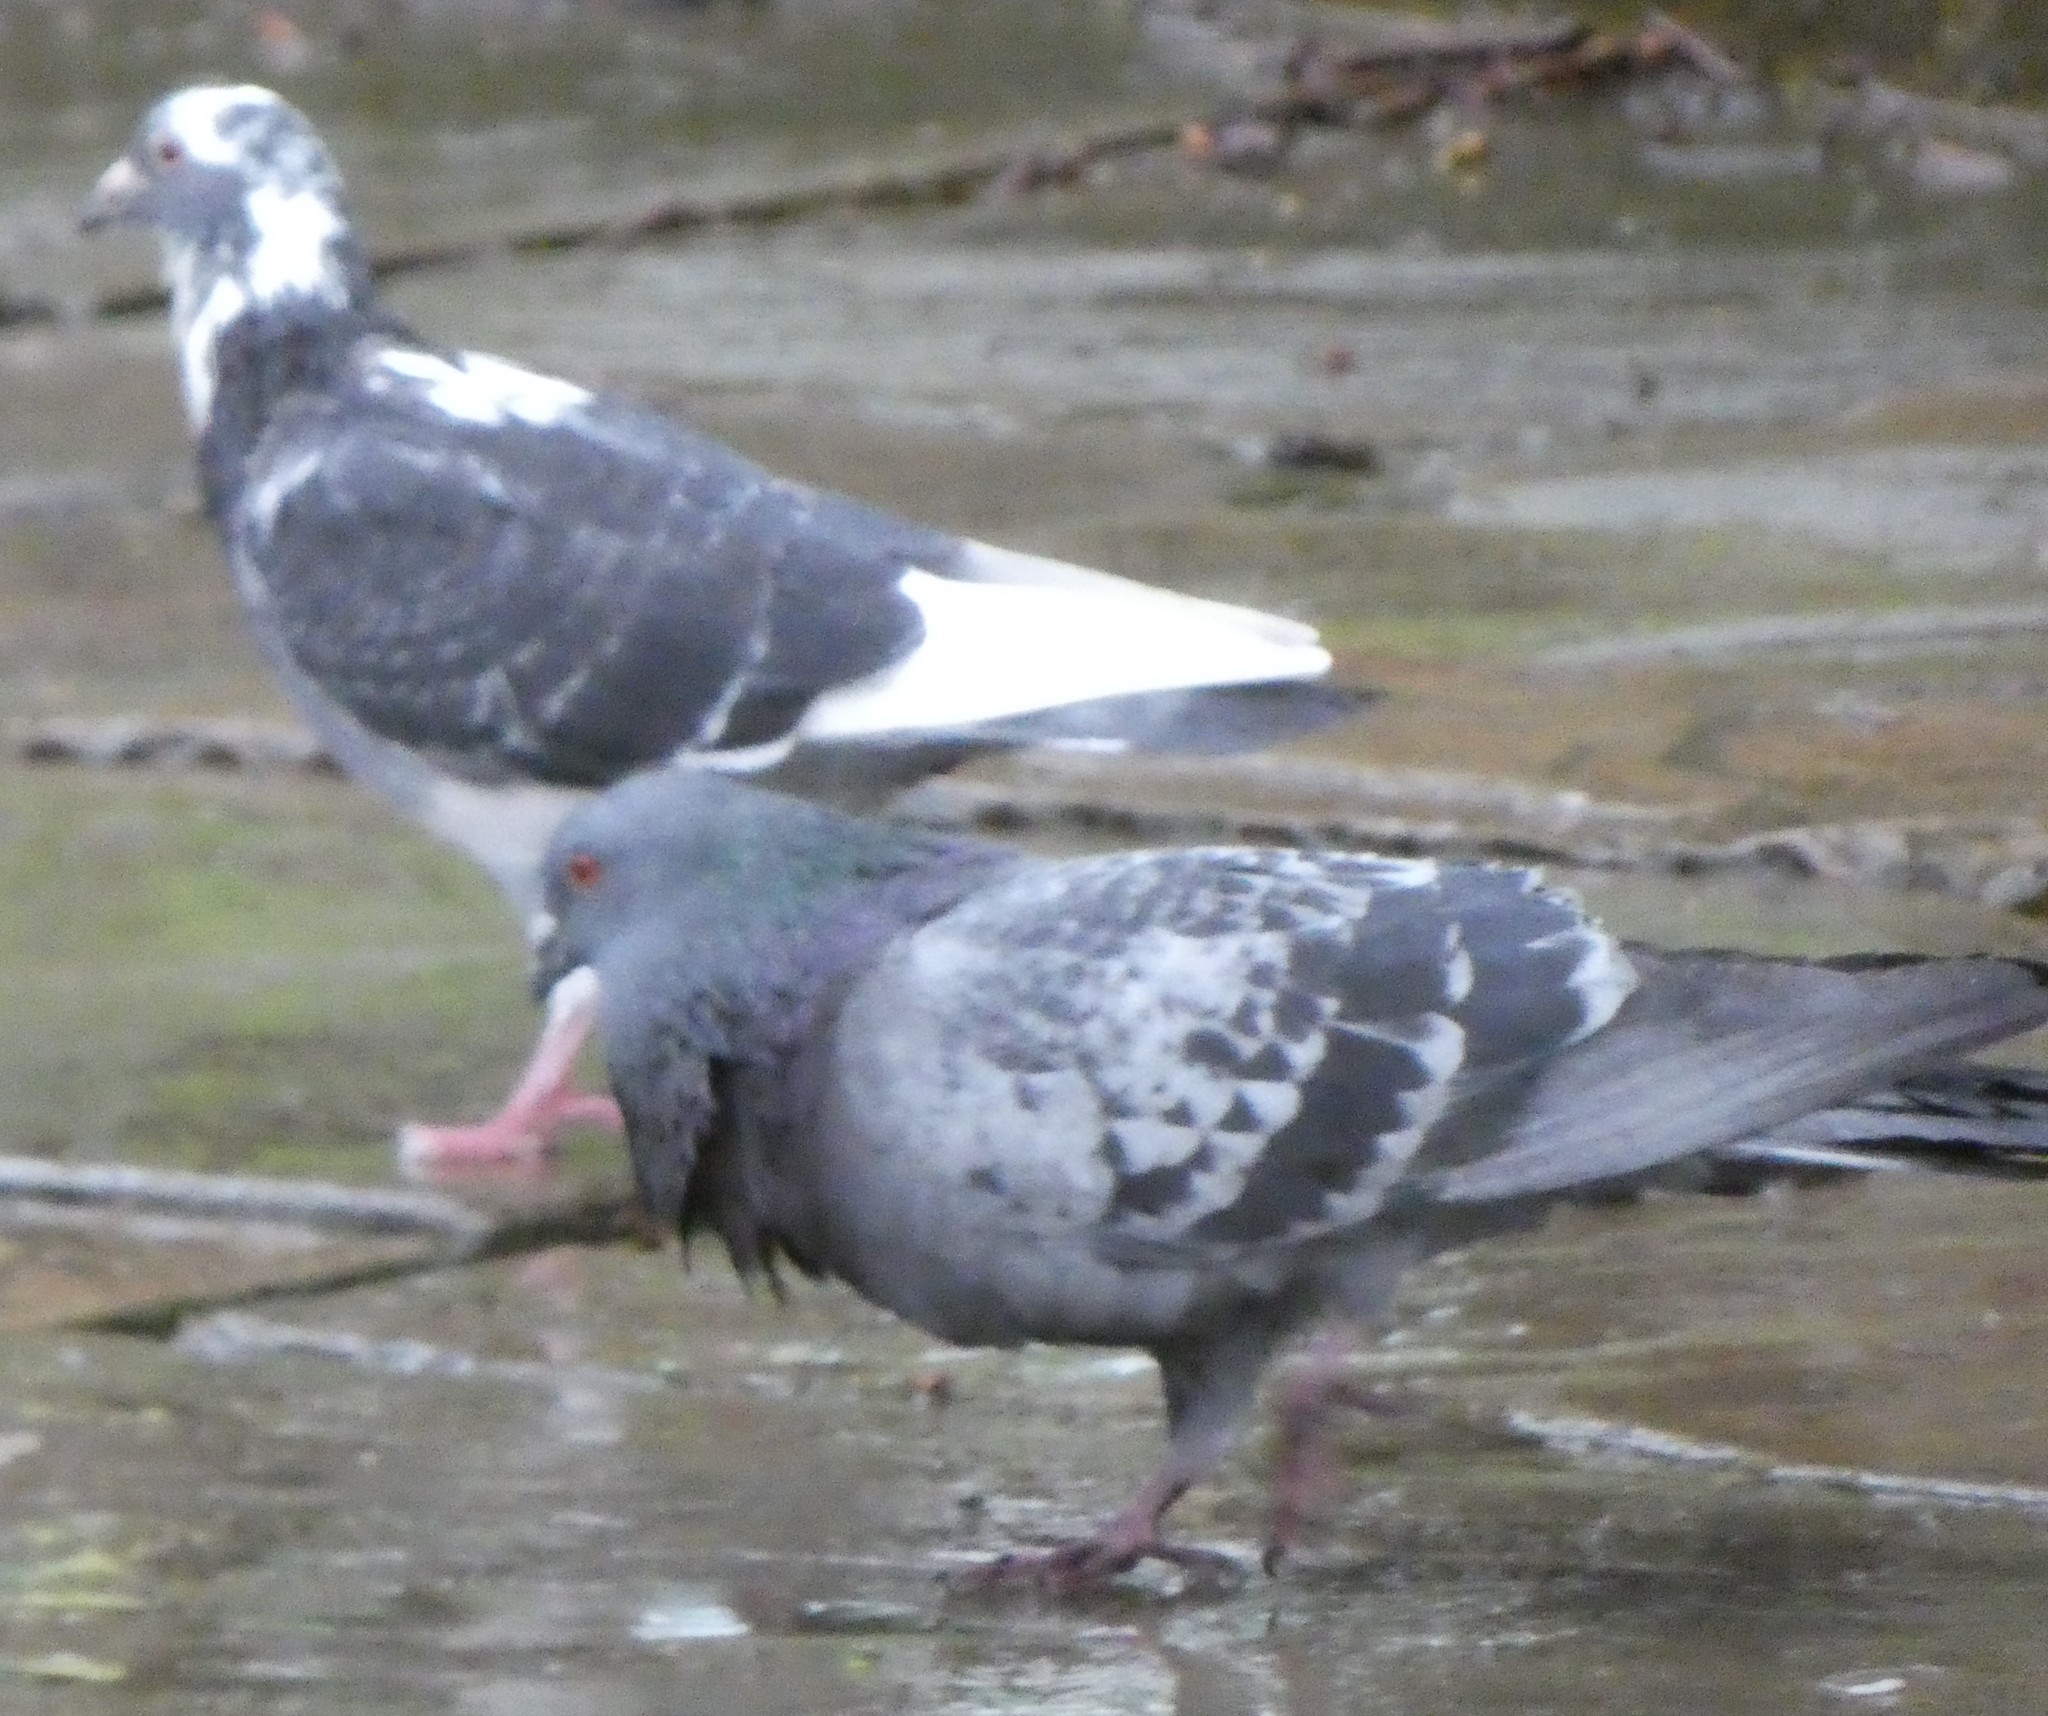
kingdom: Animalia
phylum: Chordata
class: Aves
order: Columbiformes
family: Columbidae
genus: Columba
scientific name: Columba livia
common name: Rock pigeon
